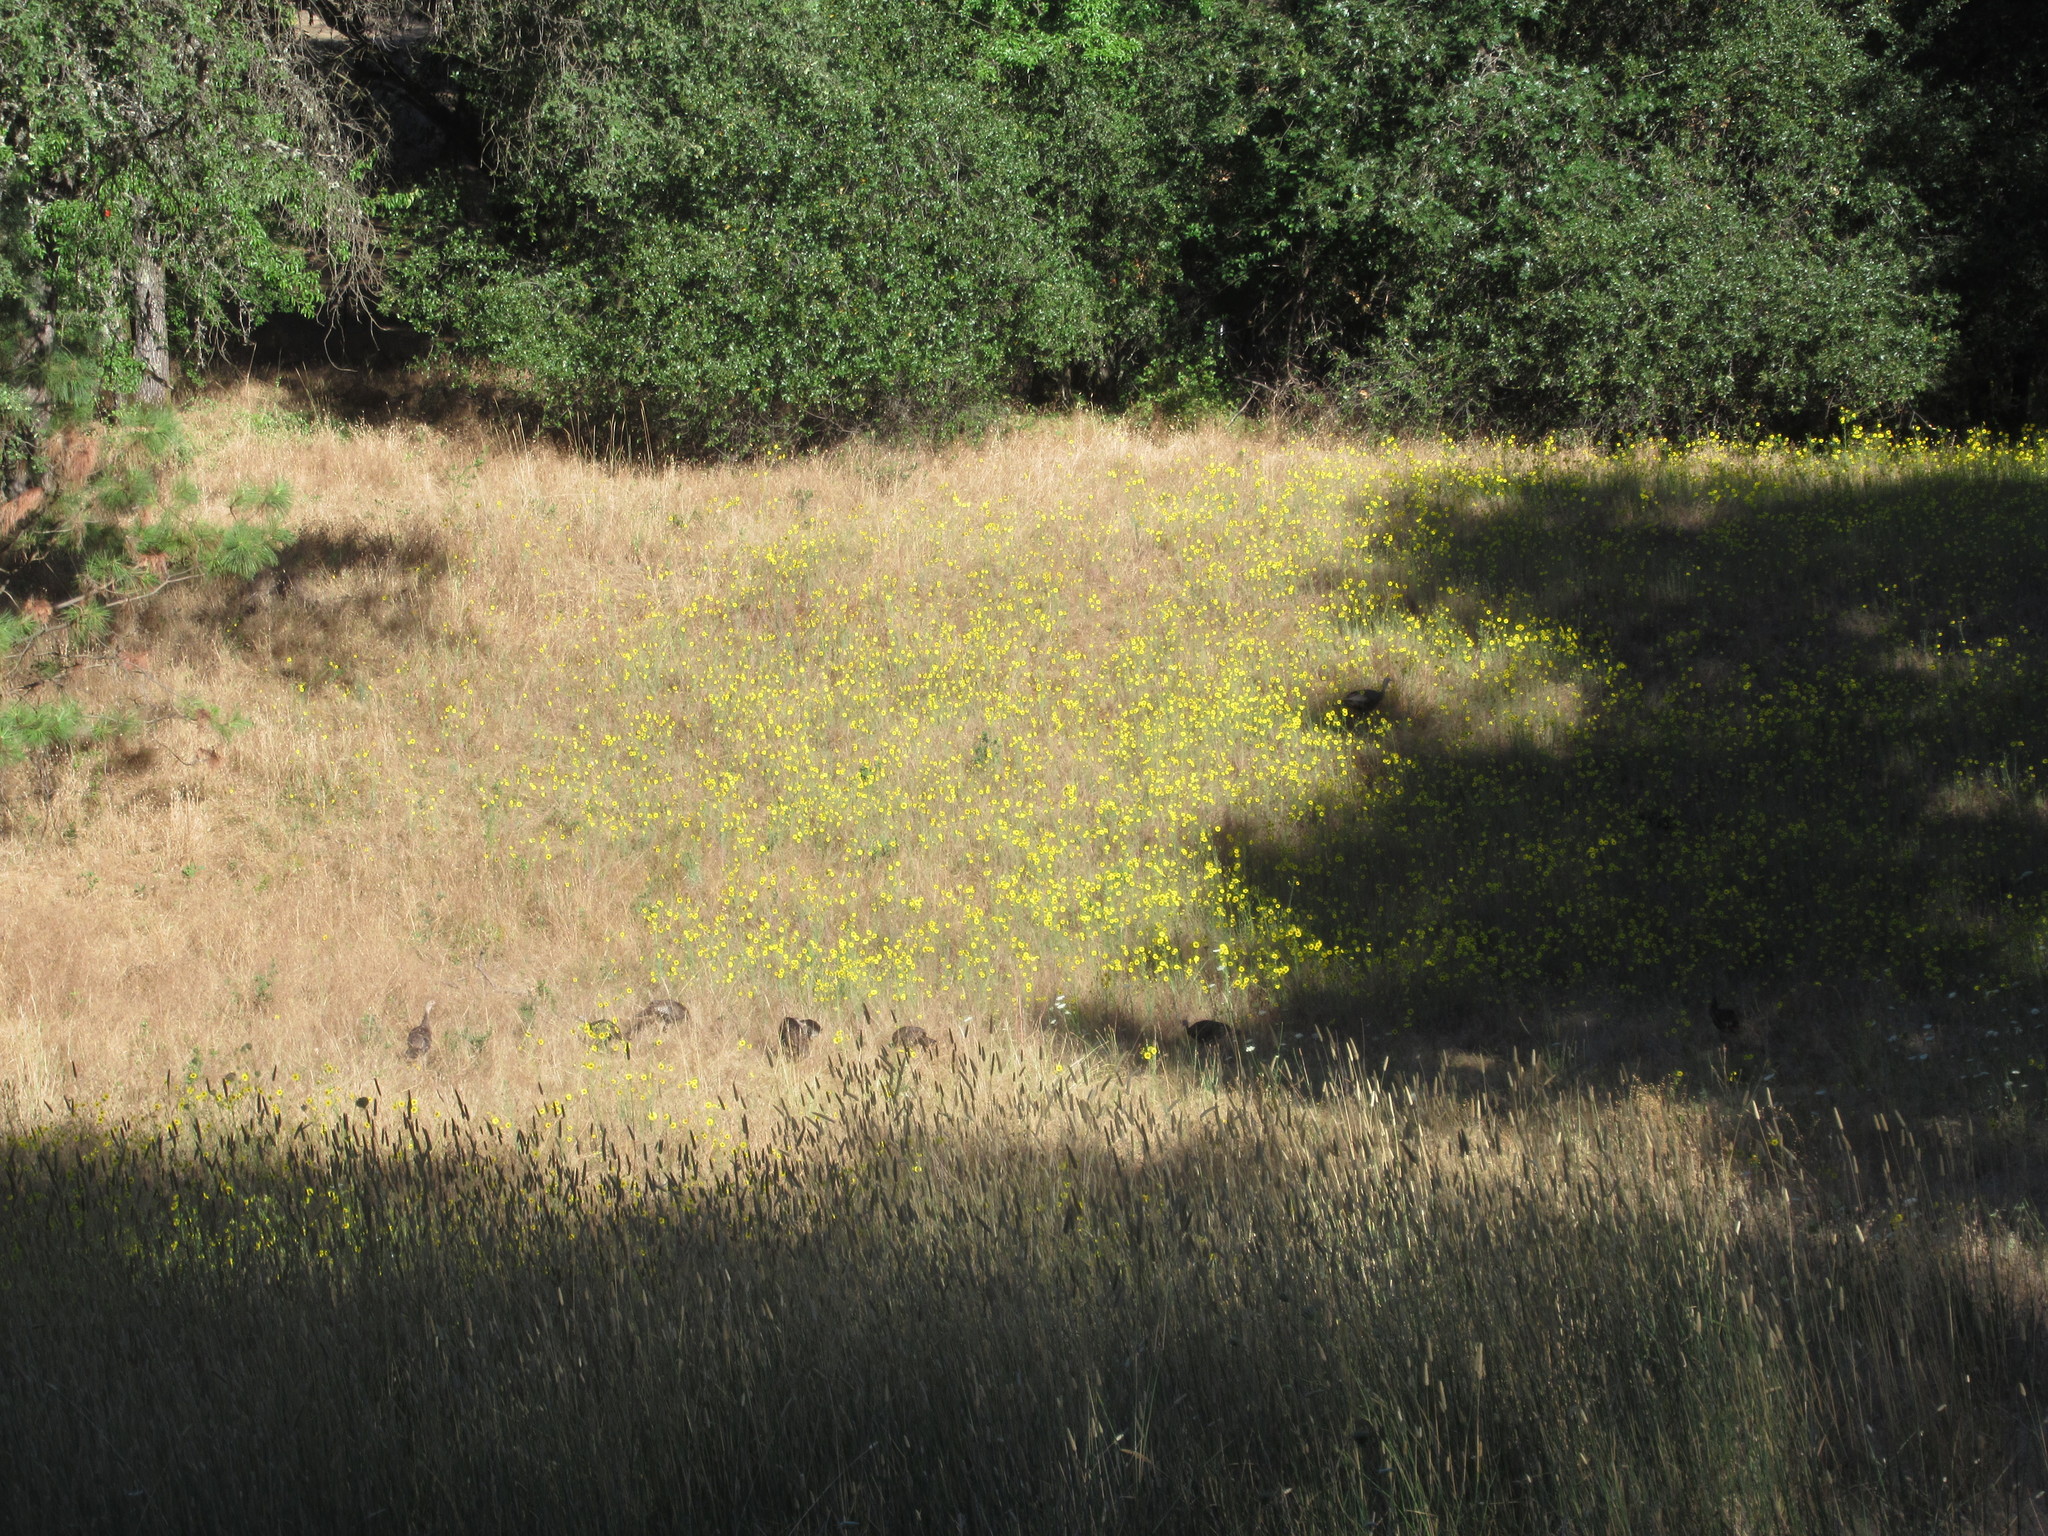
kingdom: Animalia
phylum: Chordata
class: Aves
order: Galliformes
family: Phasianidae
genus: Meleagris
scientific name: Meleagris gallopavo
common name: Wild turkey
